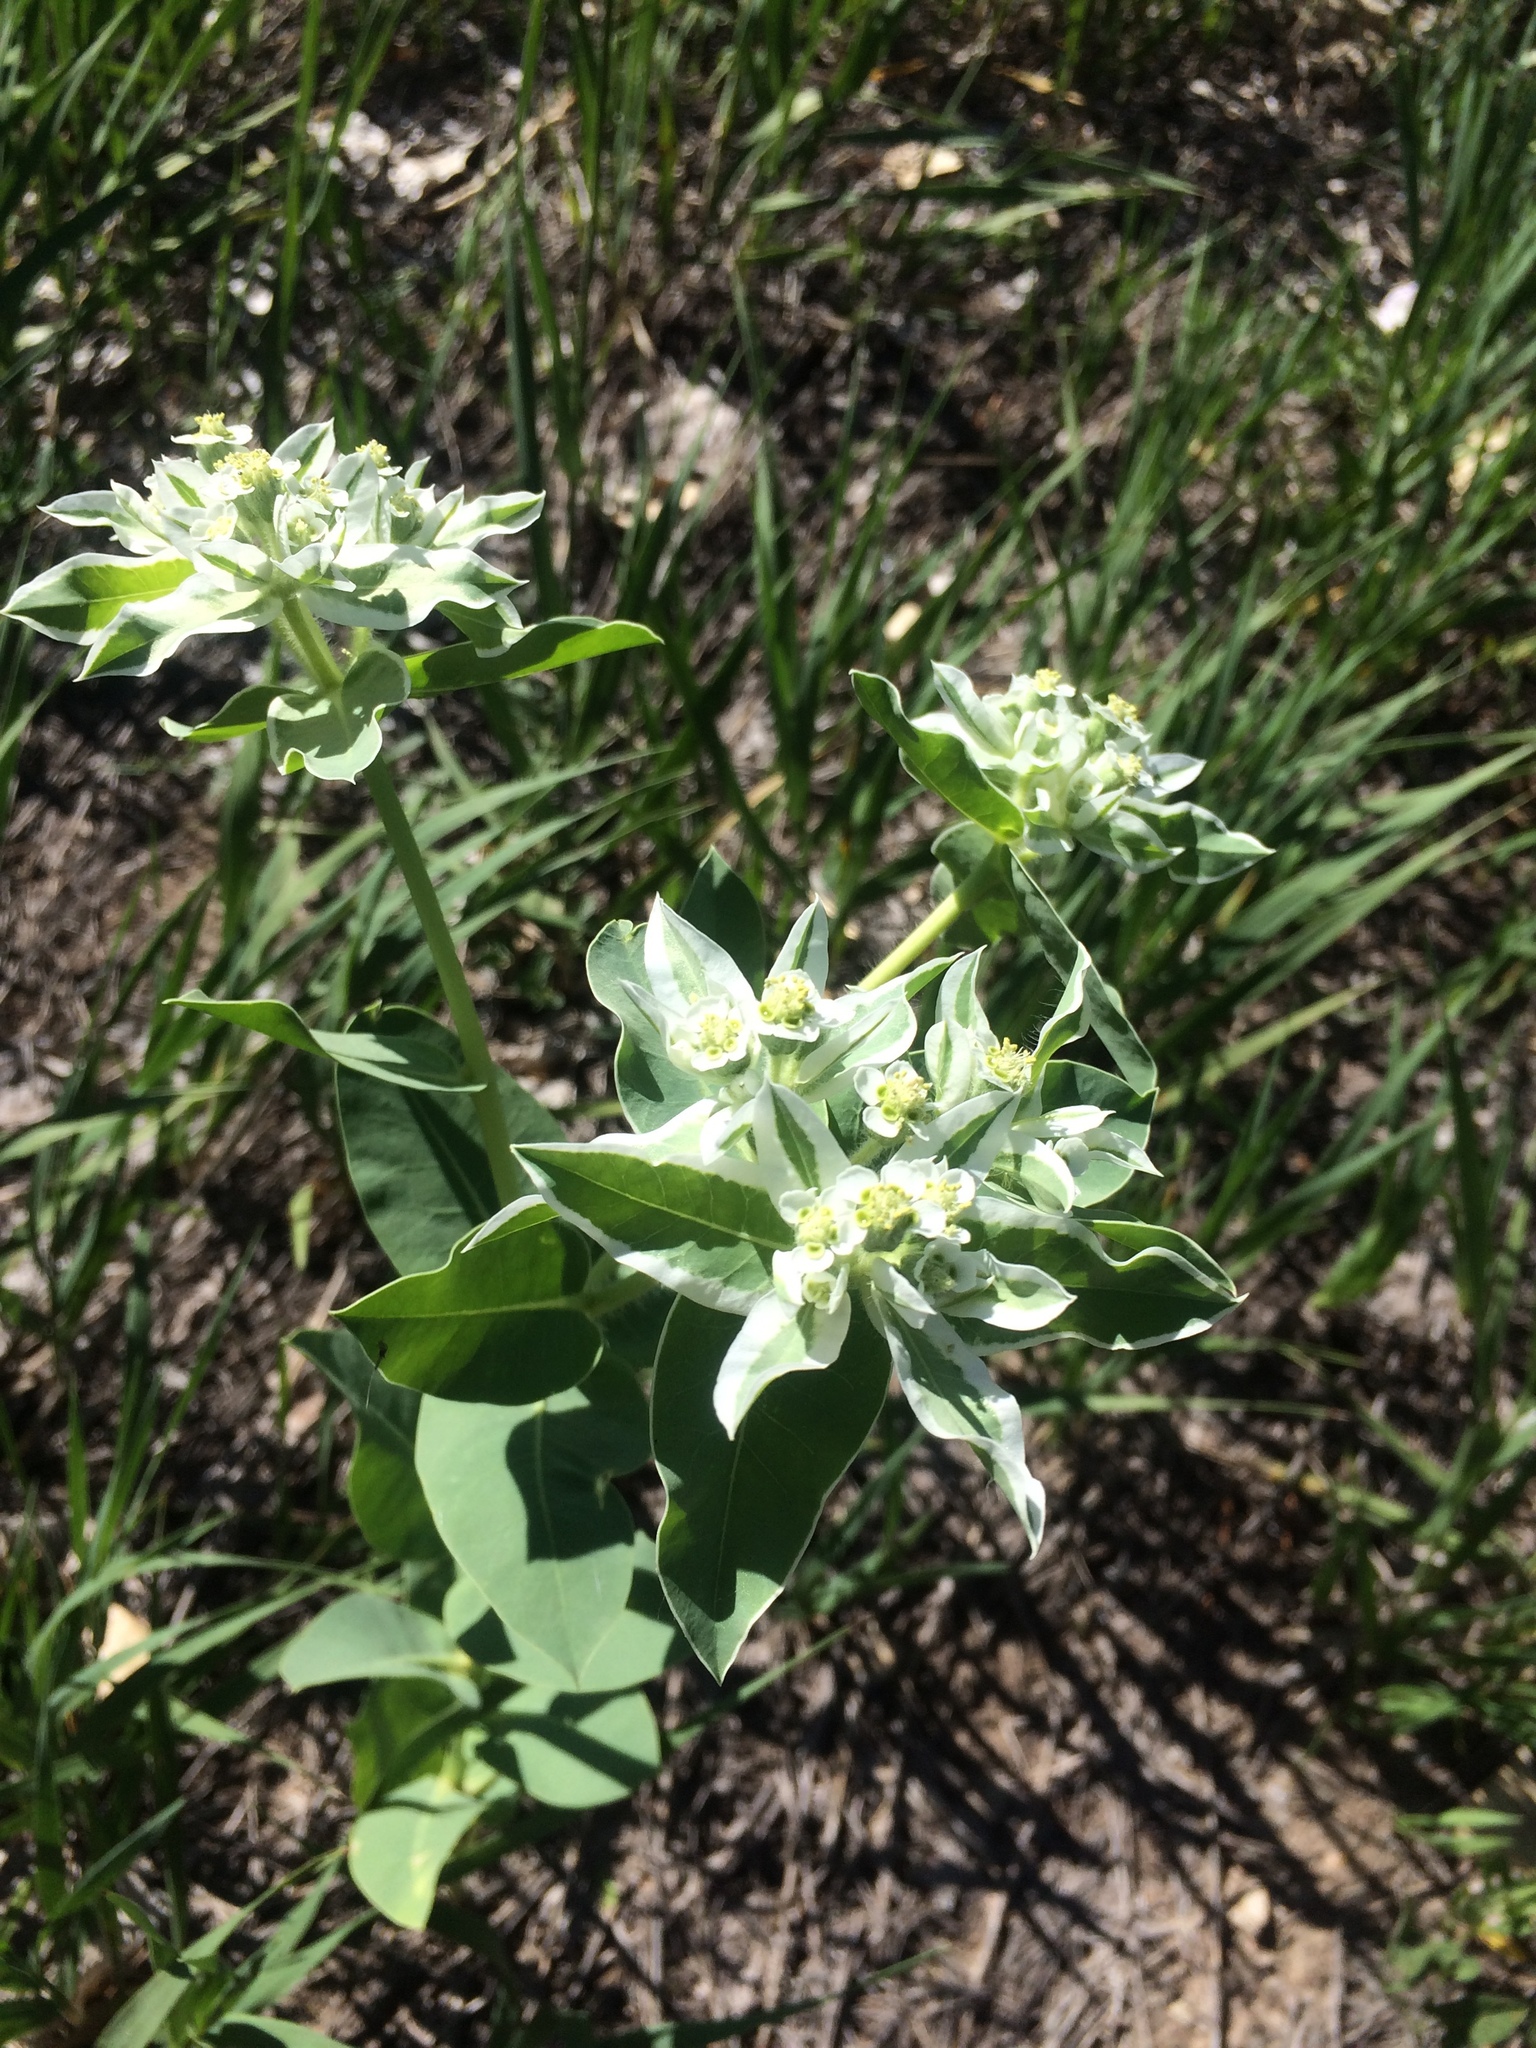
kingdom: Plantae
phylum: Tracheophyta
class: Magnoliopsida
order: Malpighiales
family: Euphorbiaceae
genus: Euphorbia
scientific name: Euphorbia marginata
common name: Ghostweed
